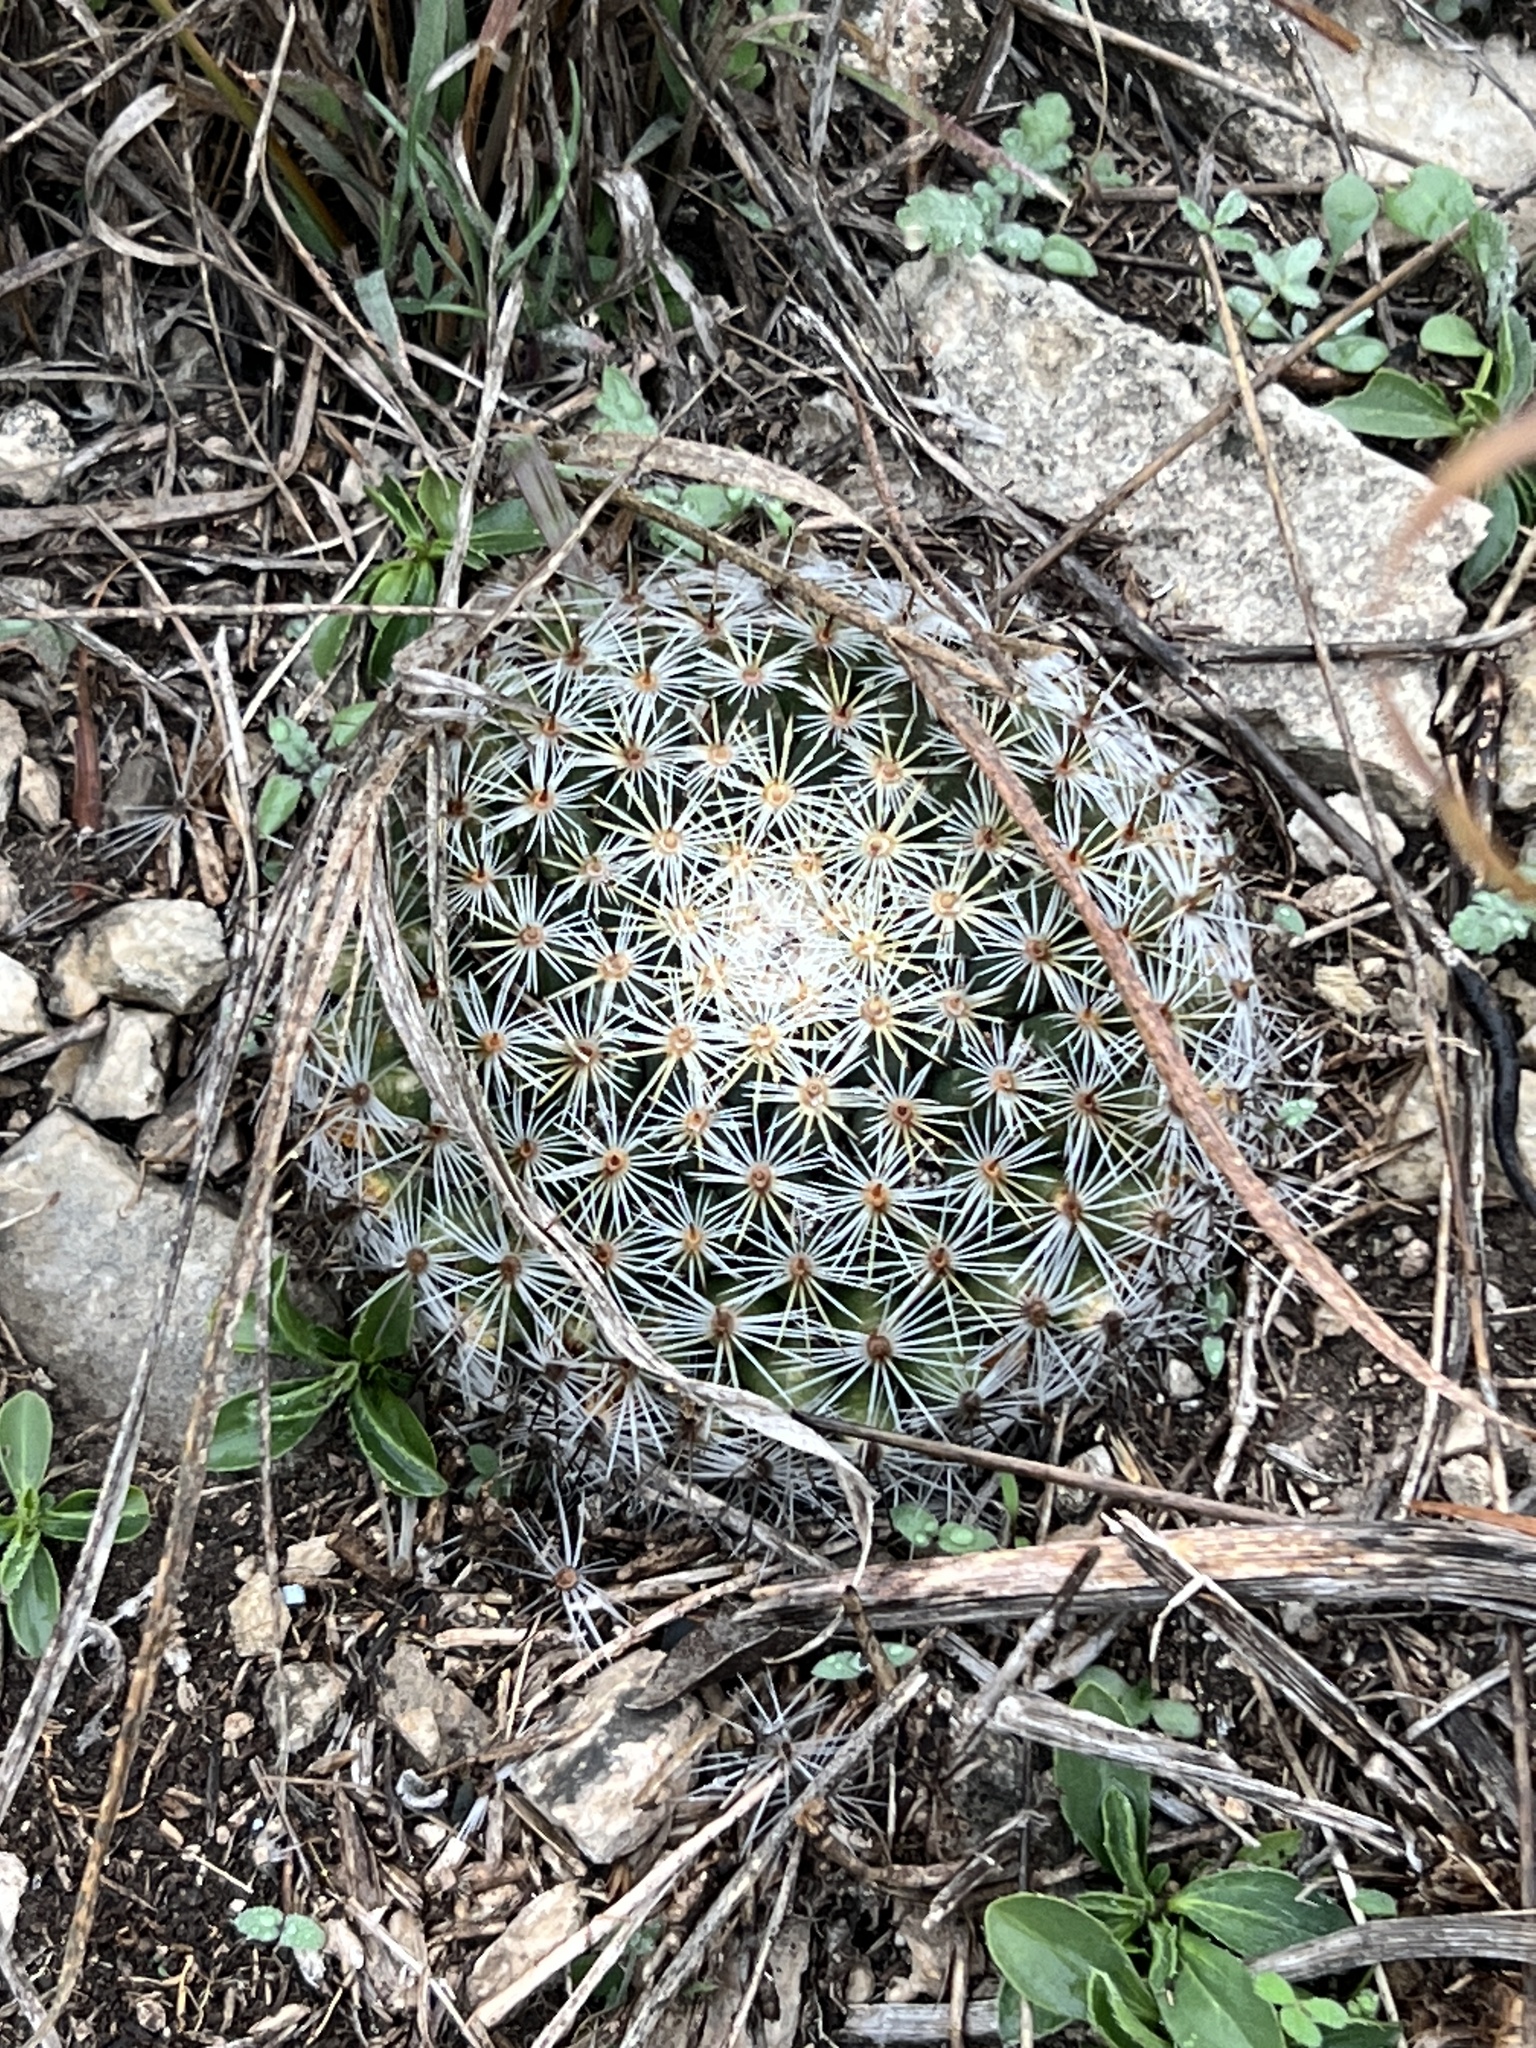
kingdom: Plantae
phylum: Tracheophyta
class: Magnoliopsida
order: Caryophyllales
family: Cactaceae
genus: Mammillaria
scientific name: Mammillaria heyderi
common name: Little nipple cactus
